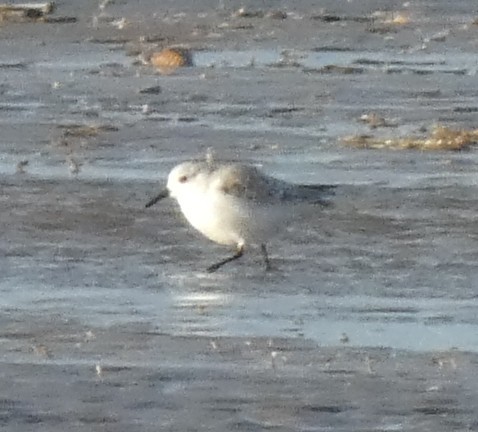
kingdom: Animalia
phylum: Chordata
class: Aves
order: Charadriiformes
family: Scolopacidae
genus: Calidris
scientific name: Calidris alba
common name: Sanderling
